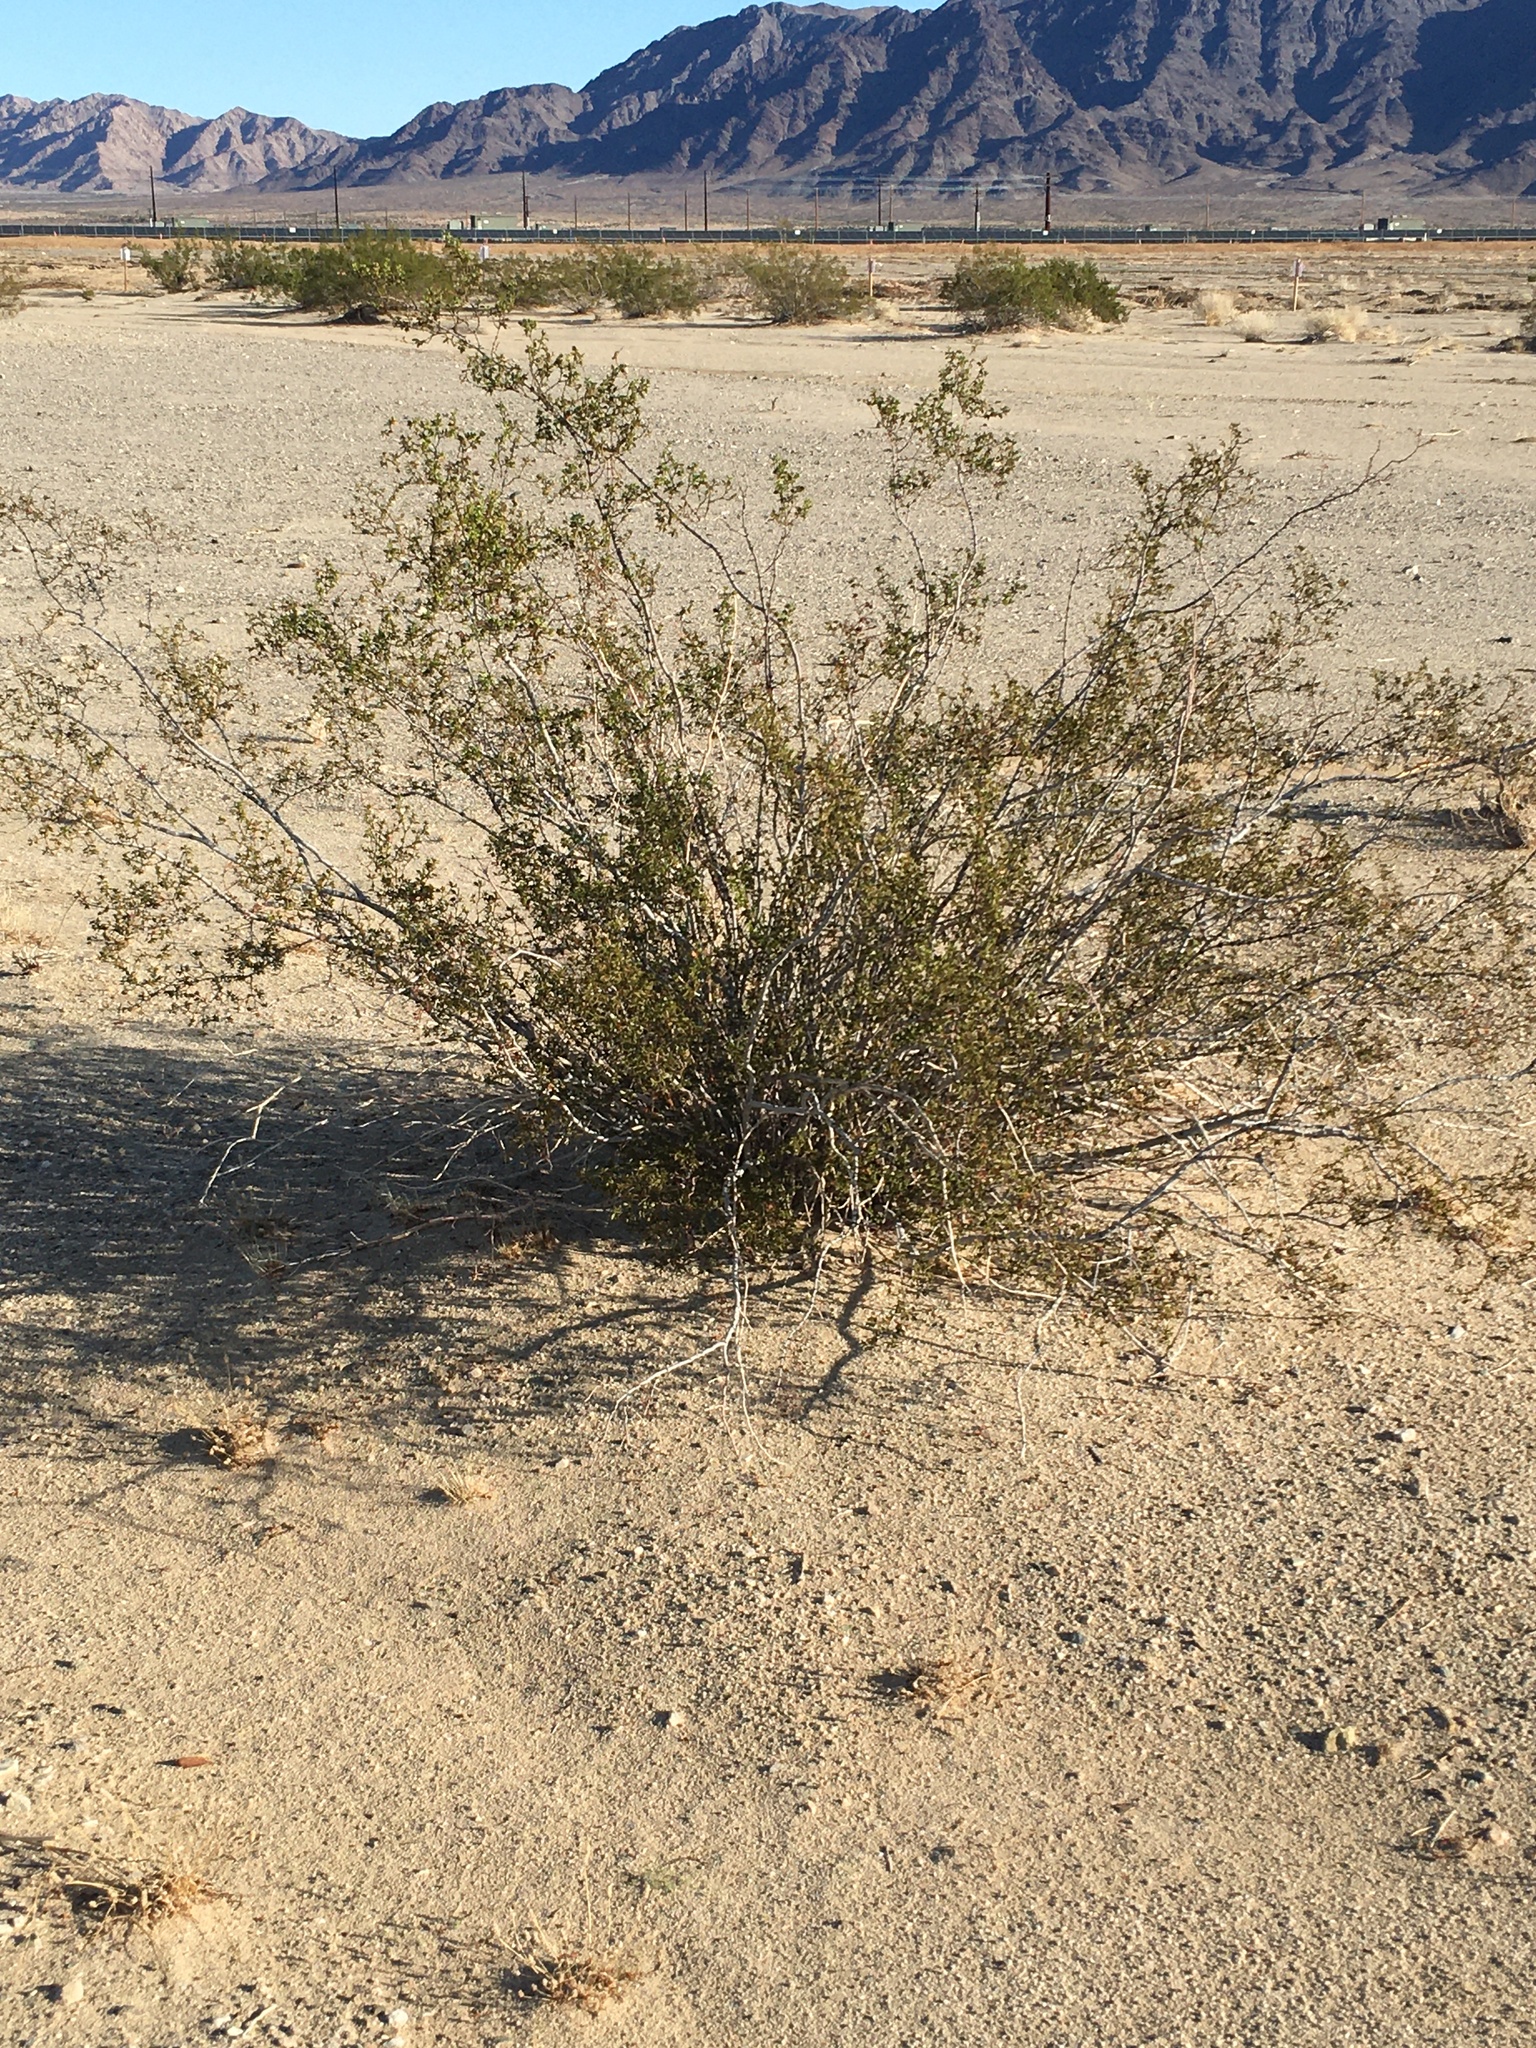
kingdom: Plantae
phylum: Tracheophyta
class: Magnoliopsida
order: Zygophyllales
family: Zygophyllaceae
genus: Larrea
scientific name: Larrea tridentata
